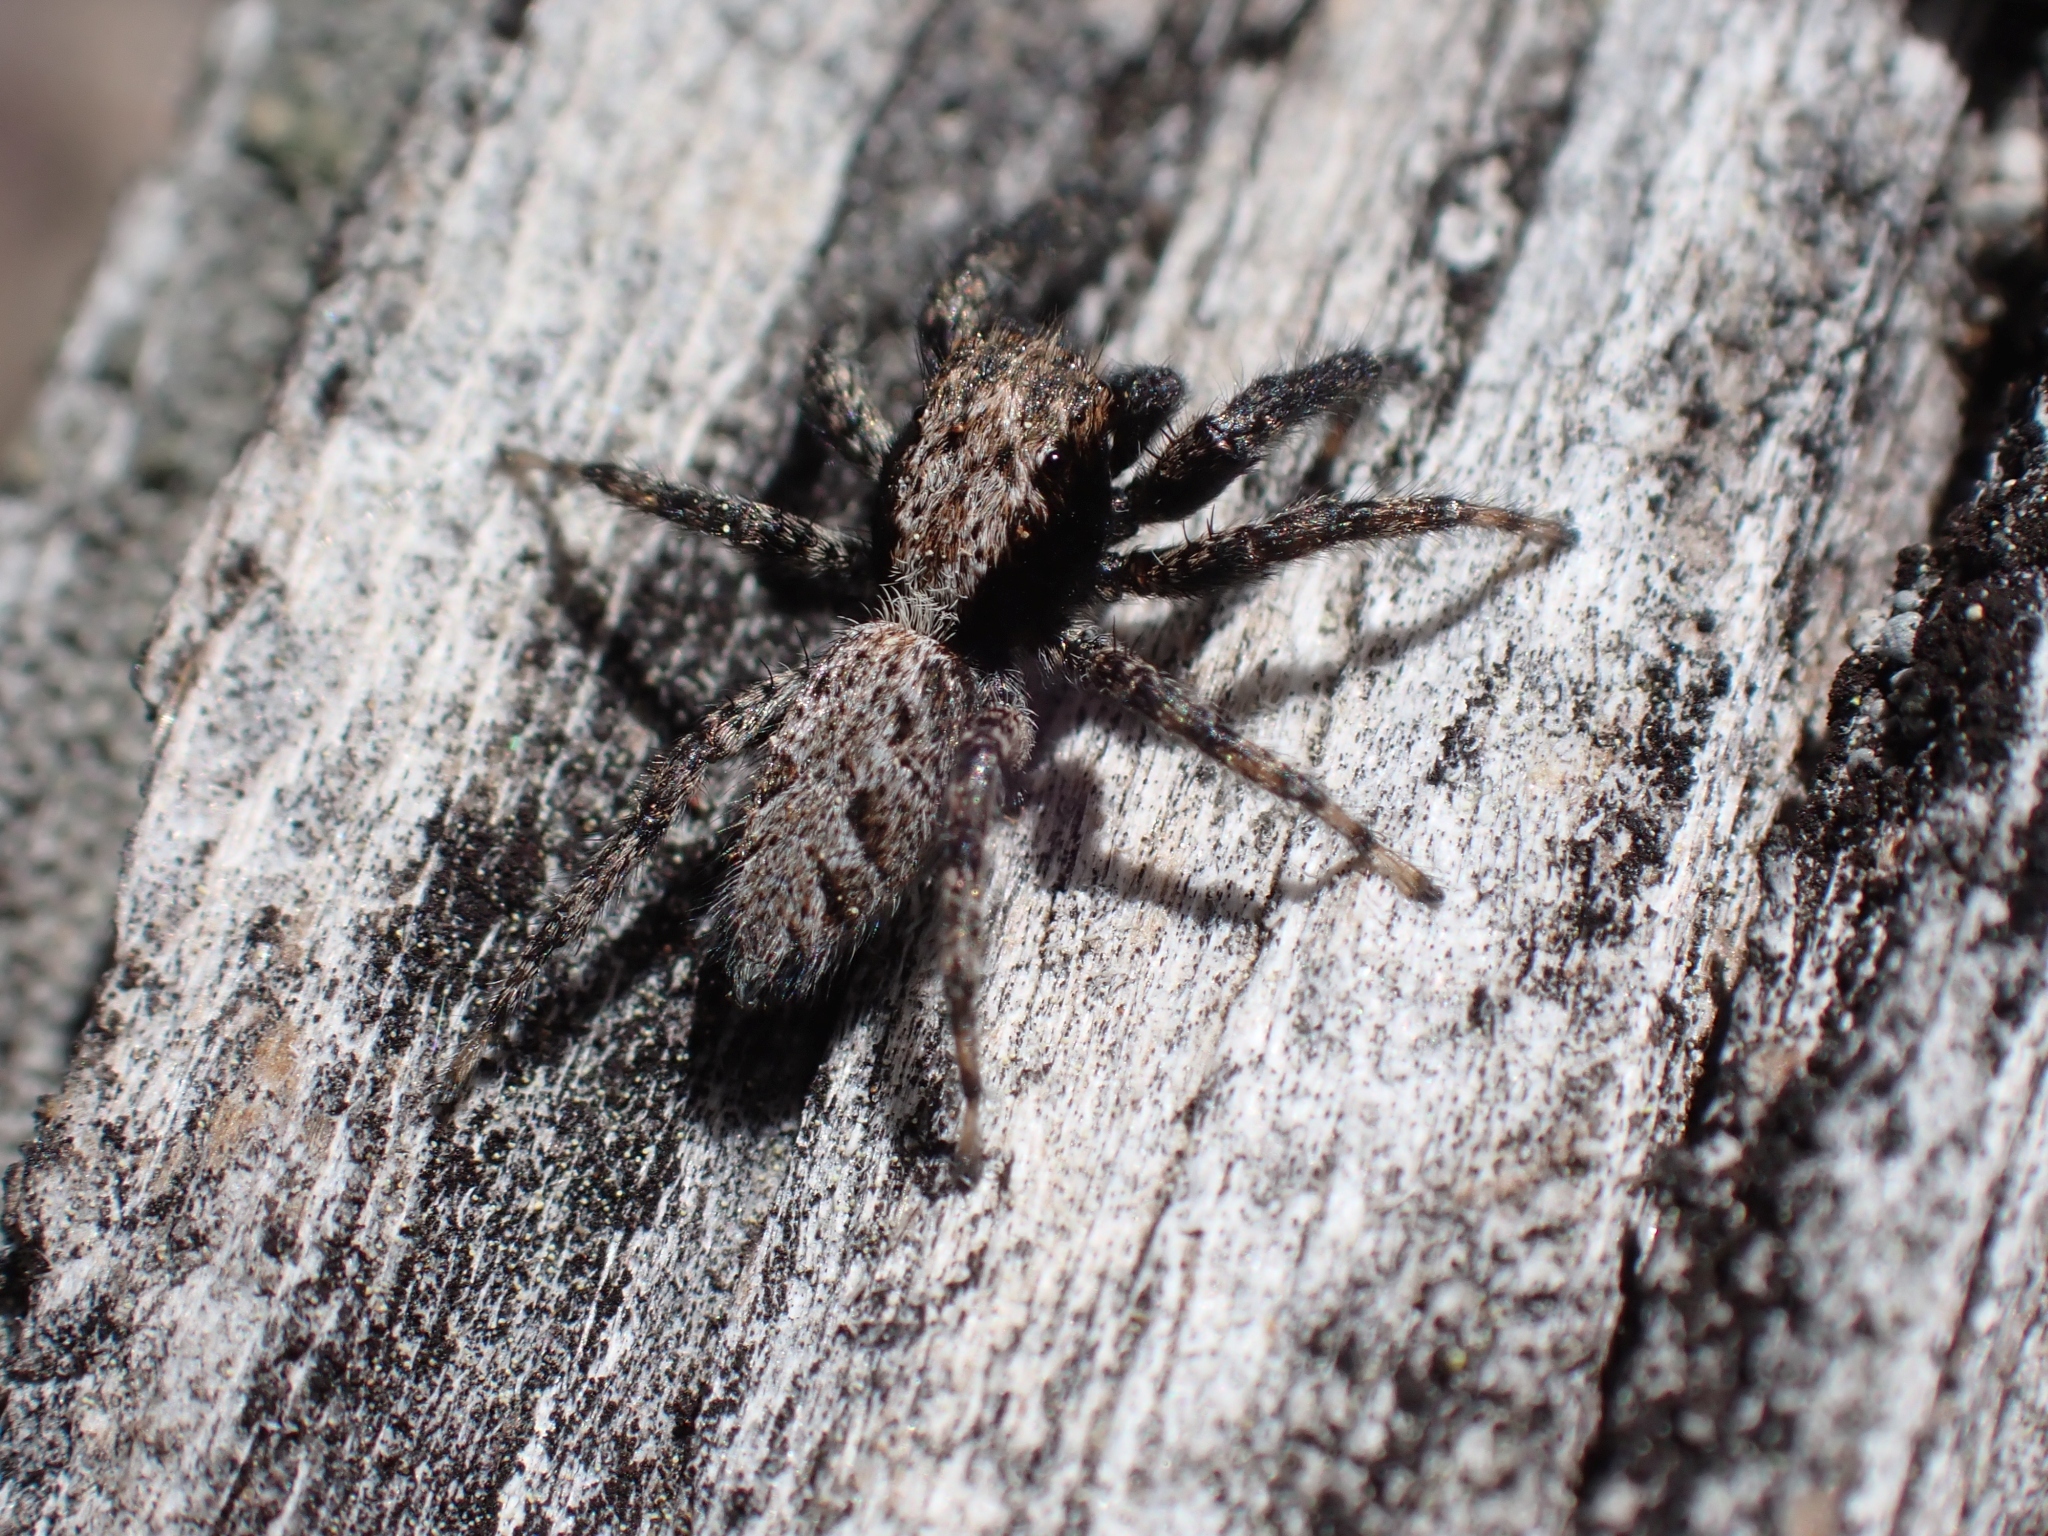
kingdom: Animalia
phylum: Arthropoda
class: Arachnida
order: Araneae
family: Salticidae
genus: Platycryptus
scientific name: Platycryptus californicus
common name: Jumping spiders
